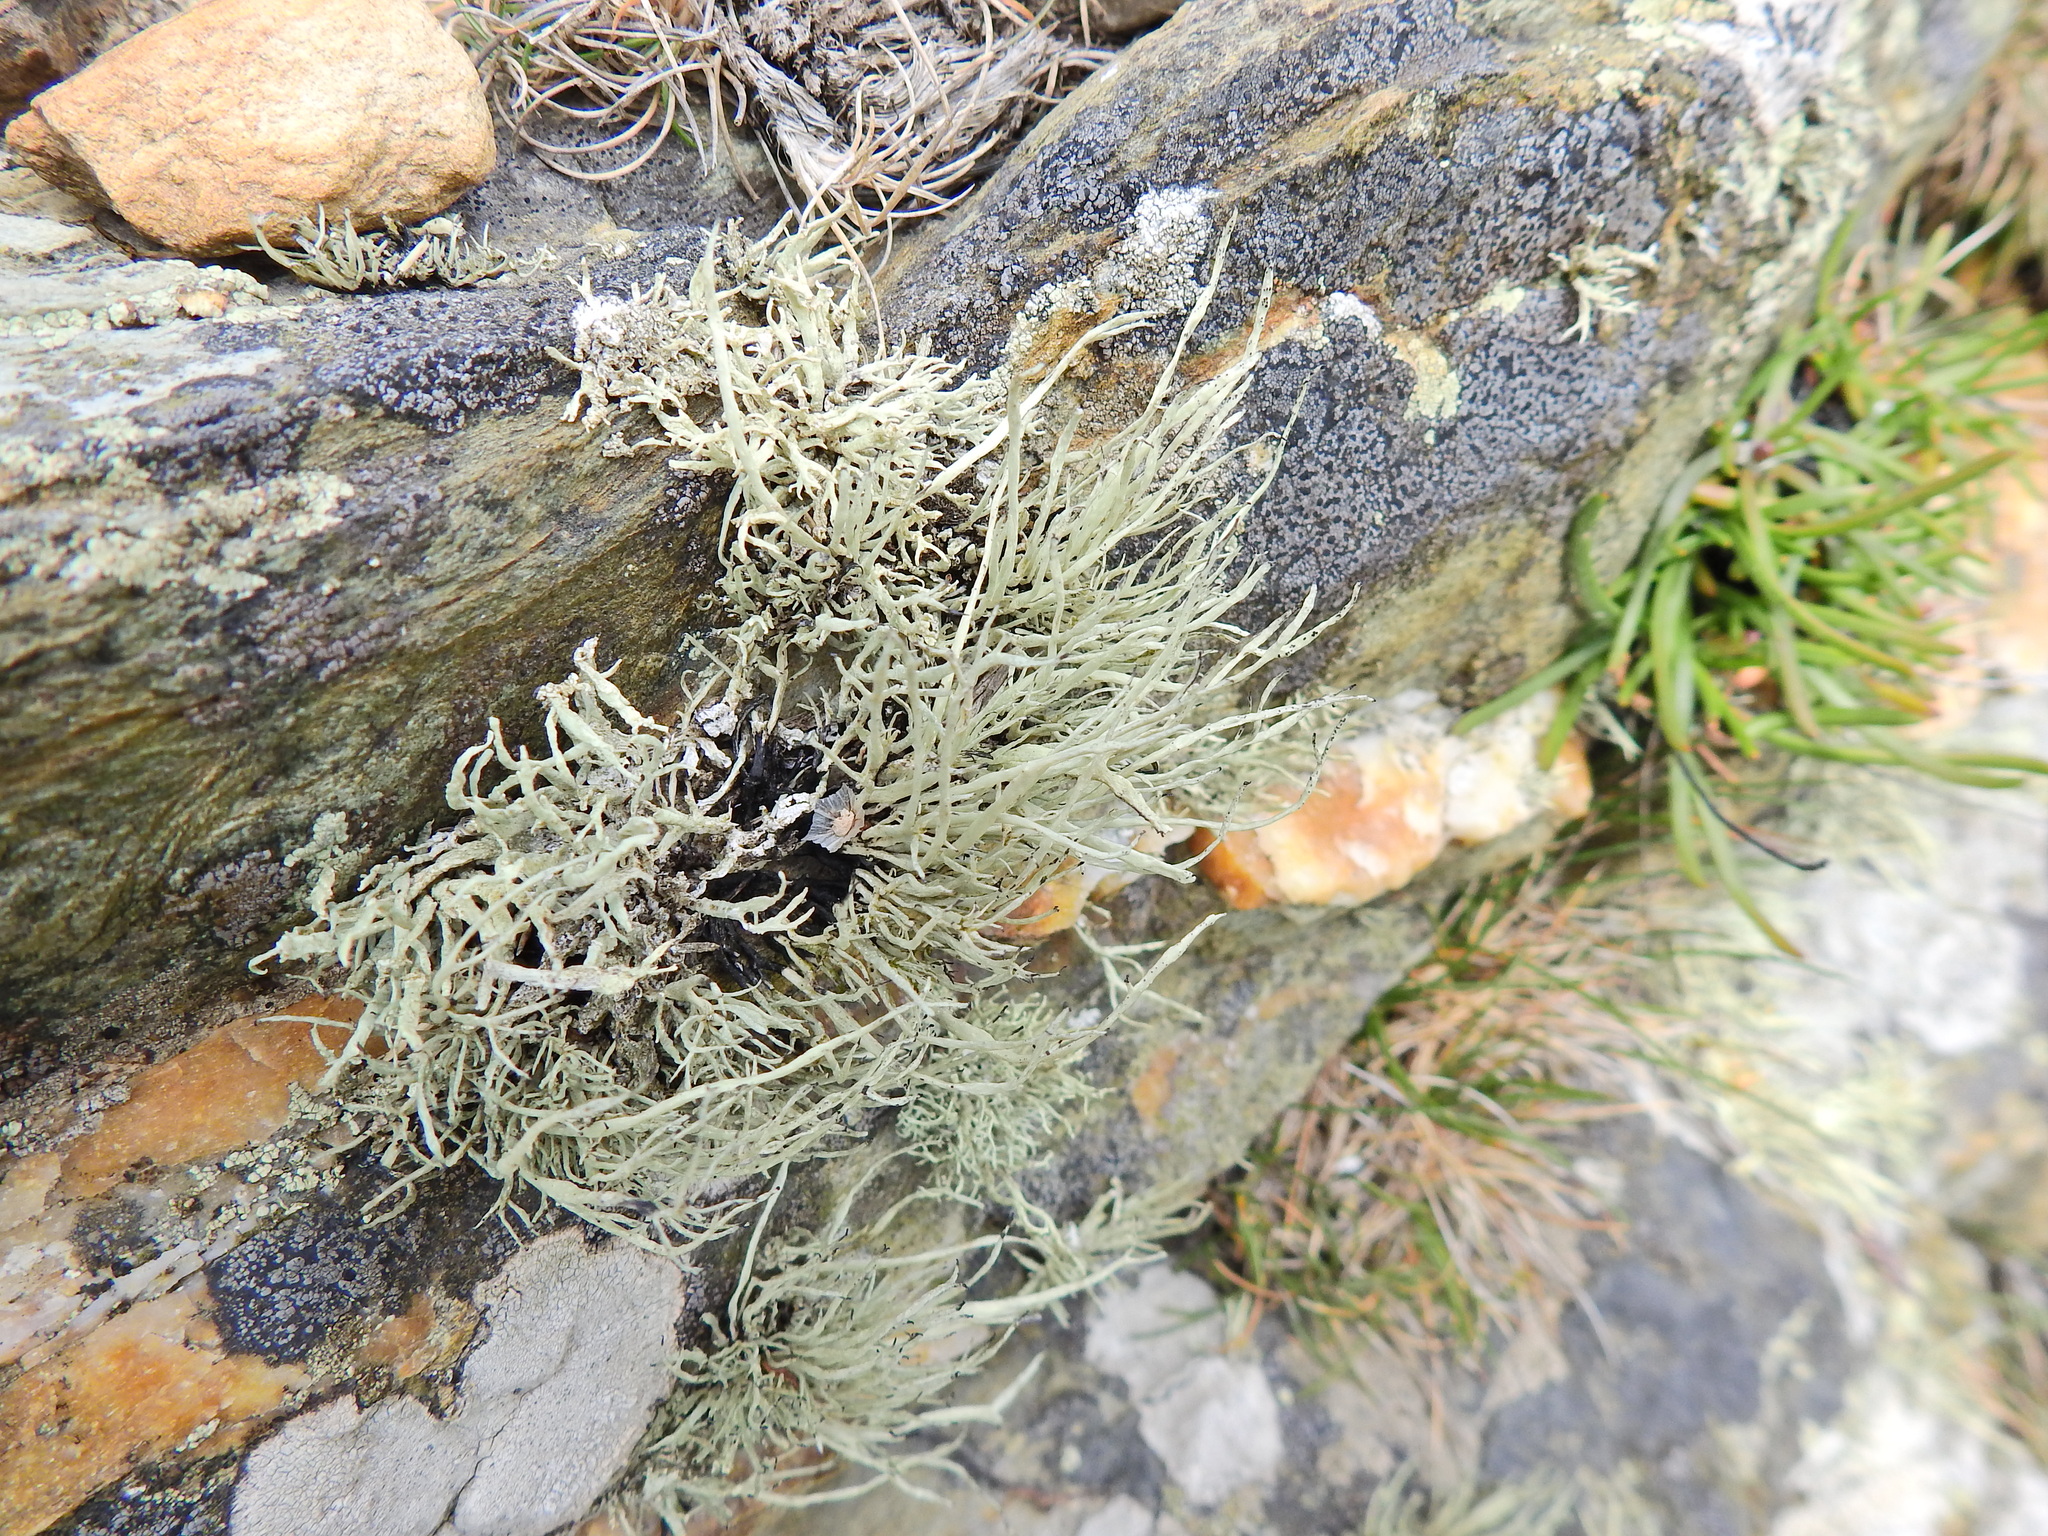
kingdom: Fungi
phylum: Ascomycota
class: Lecanoromycetes
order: Lecanorales
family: Ramalinaceae
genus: Ramalina
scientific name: Ramalina cuspidata
